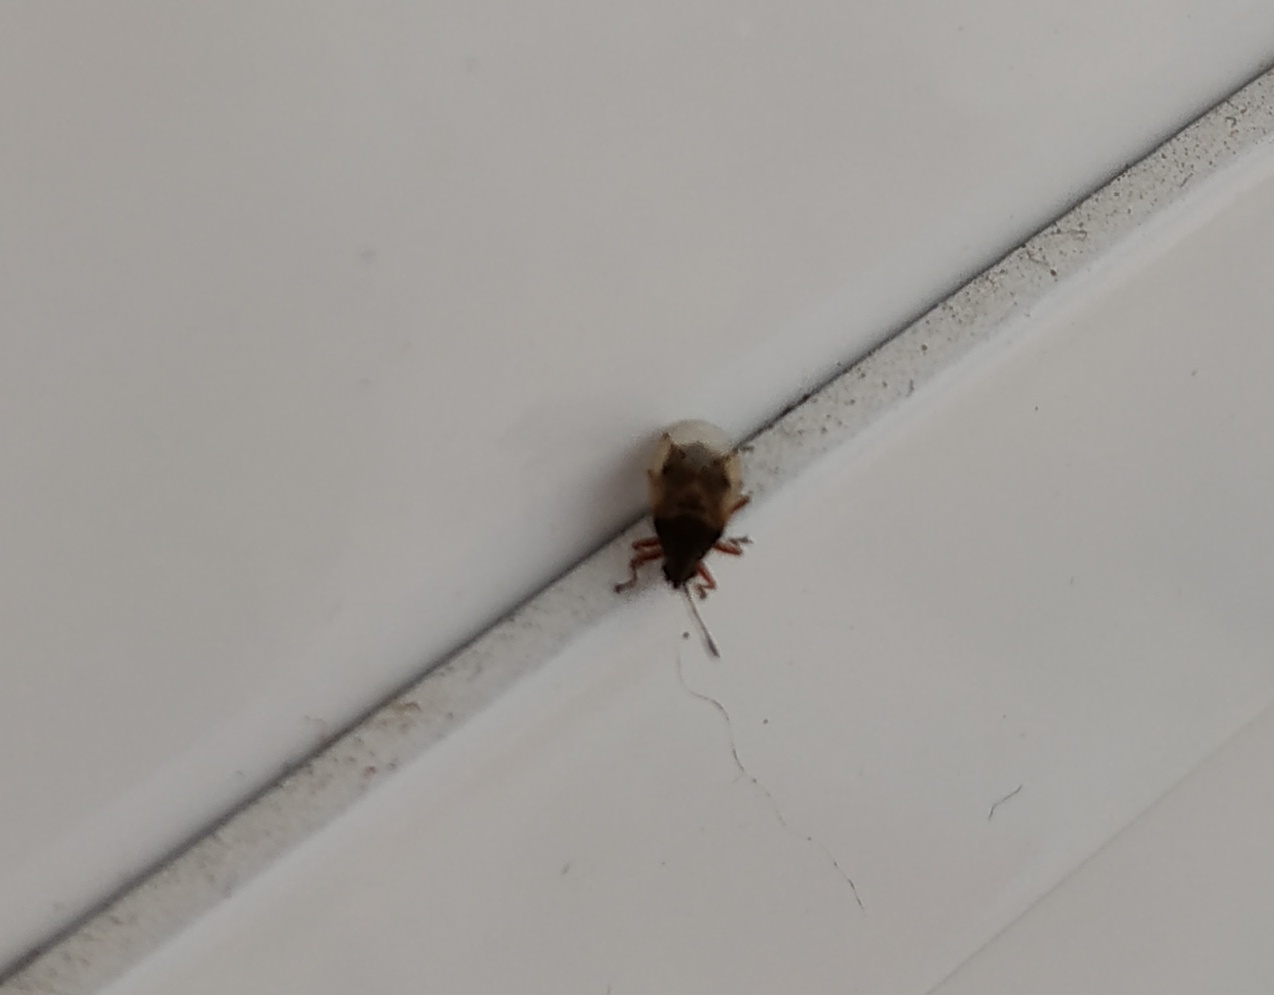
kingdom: Animalia
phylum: Arthropoda
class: Insecta
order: Hemiptera
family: Lygaeidae
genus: Kleidocerys
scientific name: Kleidocerys resedae
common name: Birch catkin bug
